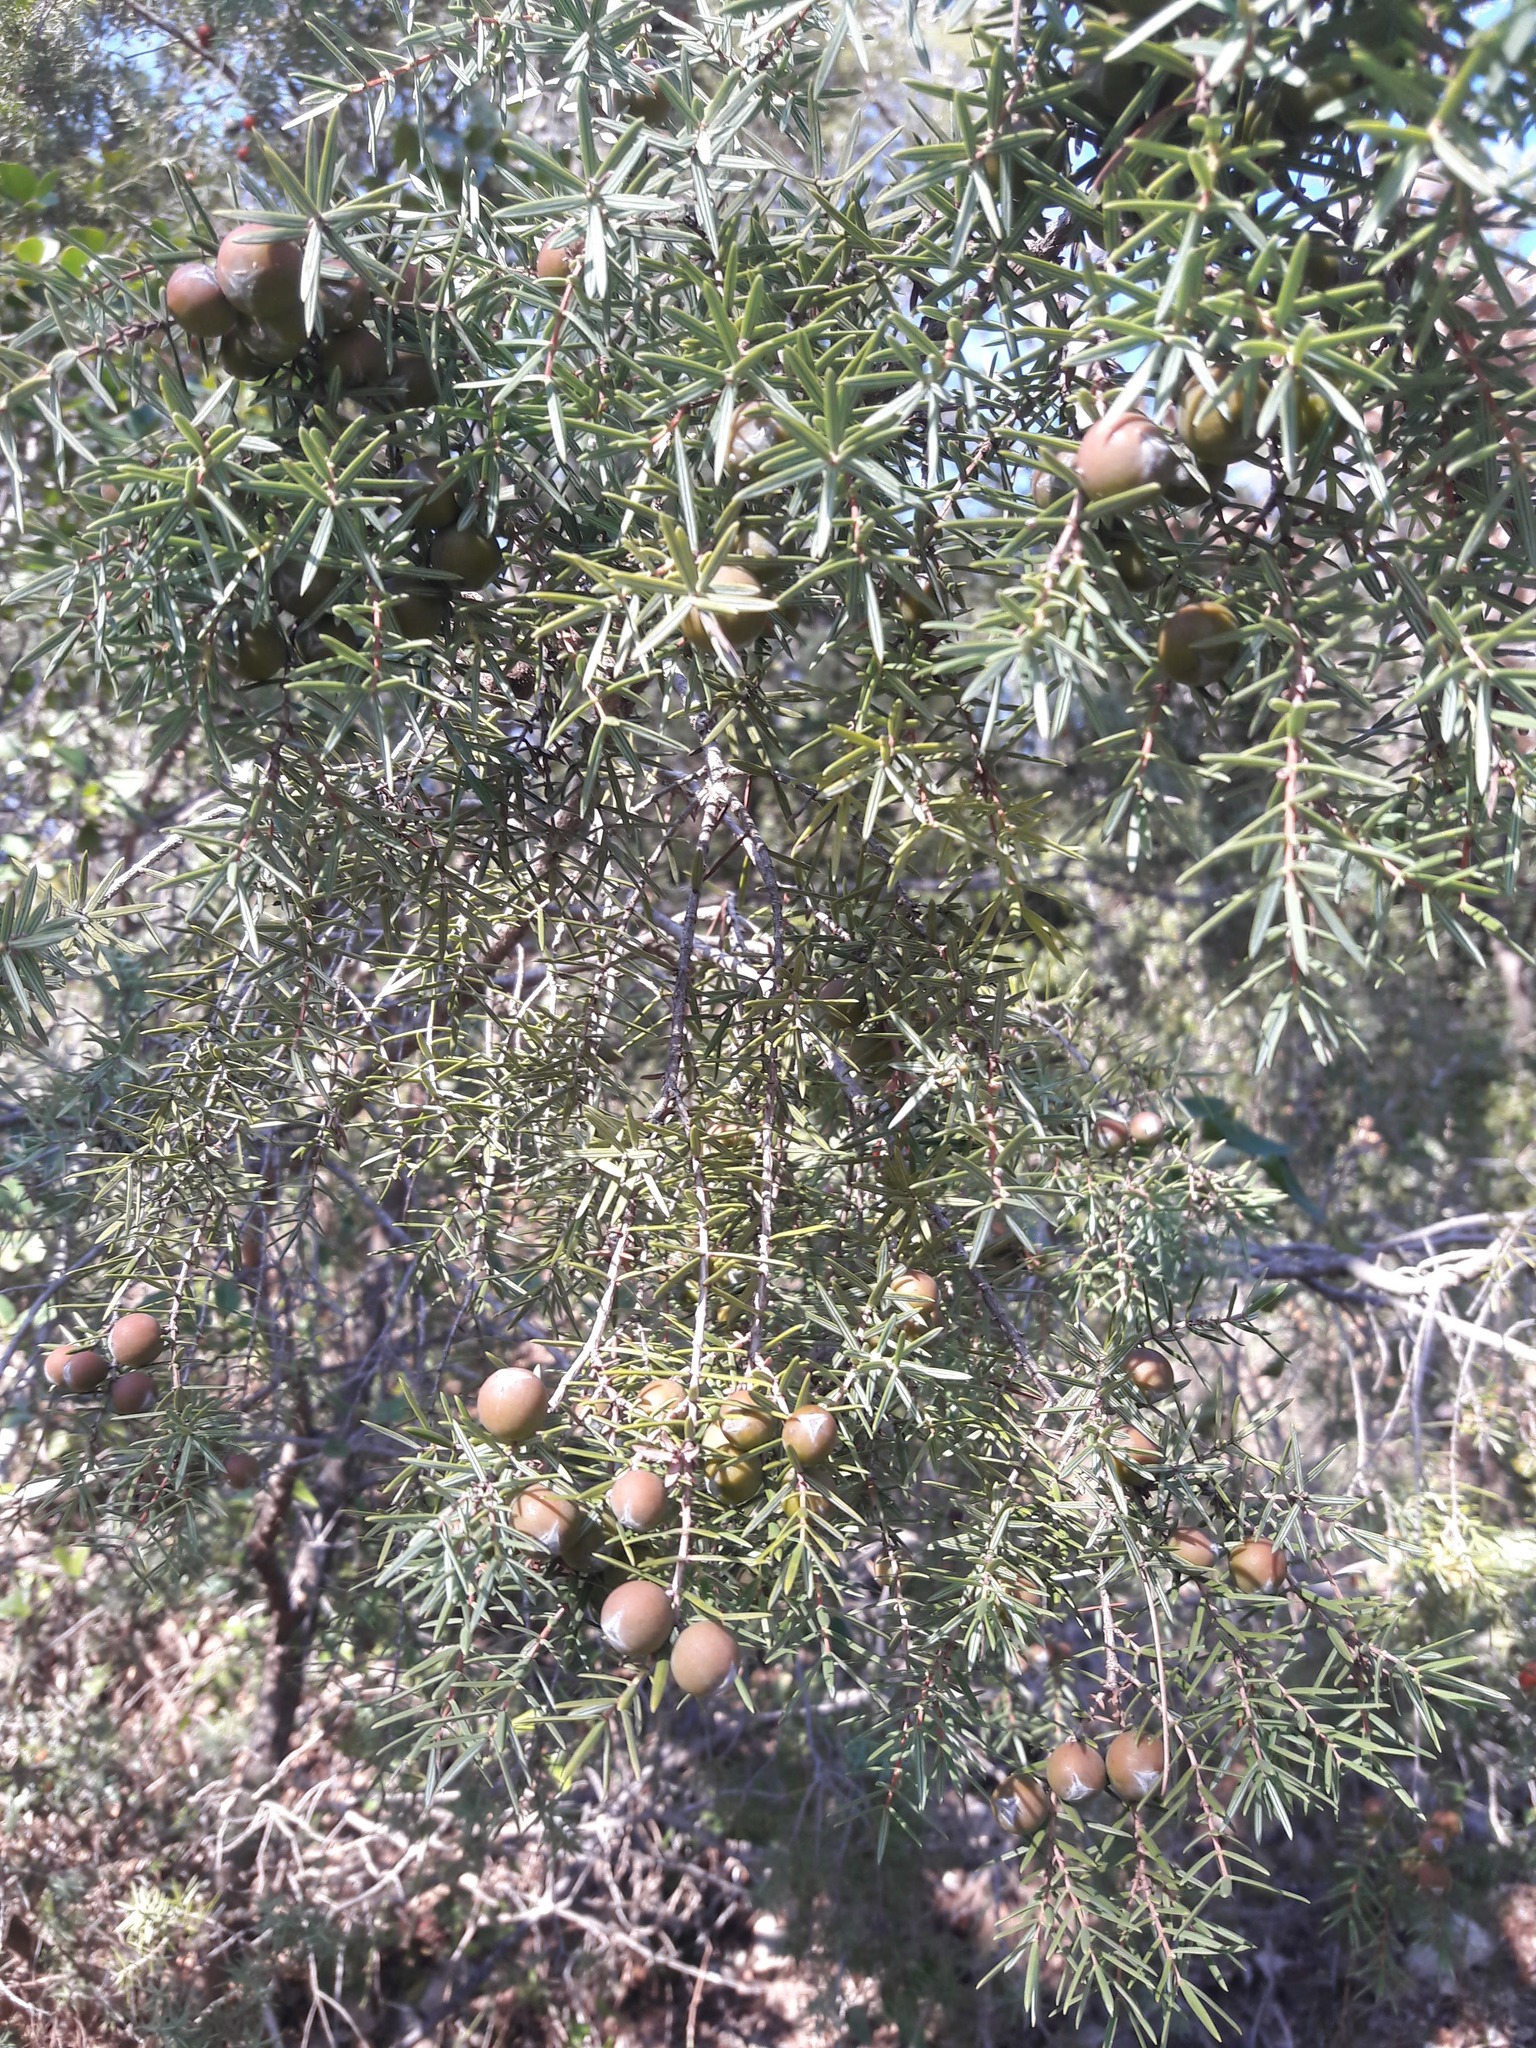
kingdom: Plantae
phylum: Tracheophyta
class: Pinopsida
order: Pinales
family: Cupressaceae
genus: Juniperus
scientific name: Juniperus oxycedrus
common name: Prickly juniper
